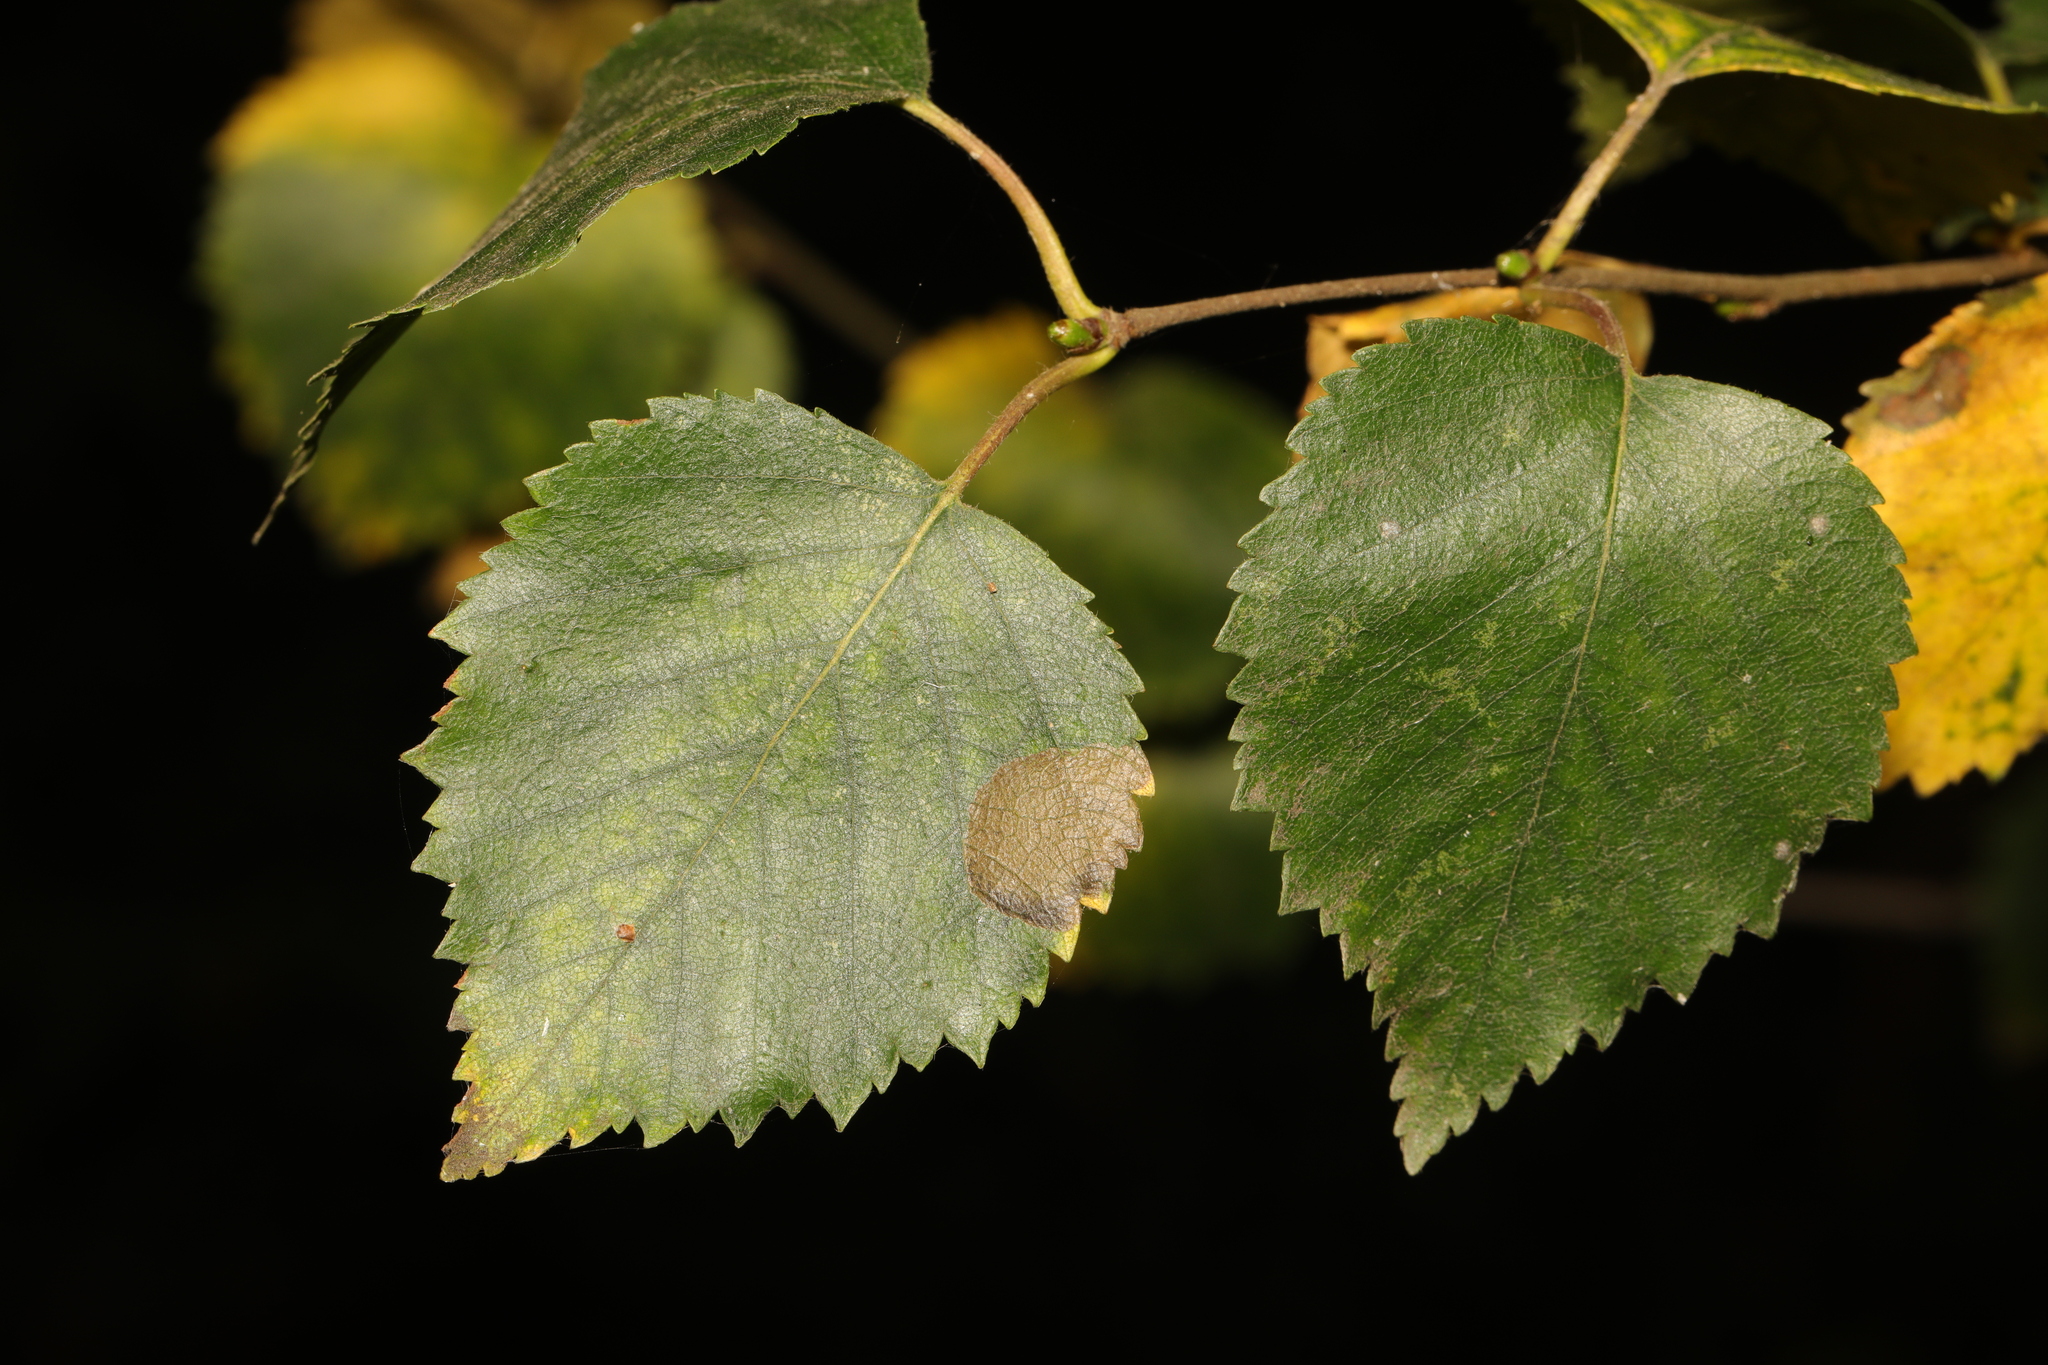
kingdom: Plantae
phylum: Tracheophyta
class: Magnoliopsida
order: Fagales
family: Betulaceae
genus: Betula
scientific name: Betula pubescens
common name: Downy birch
